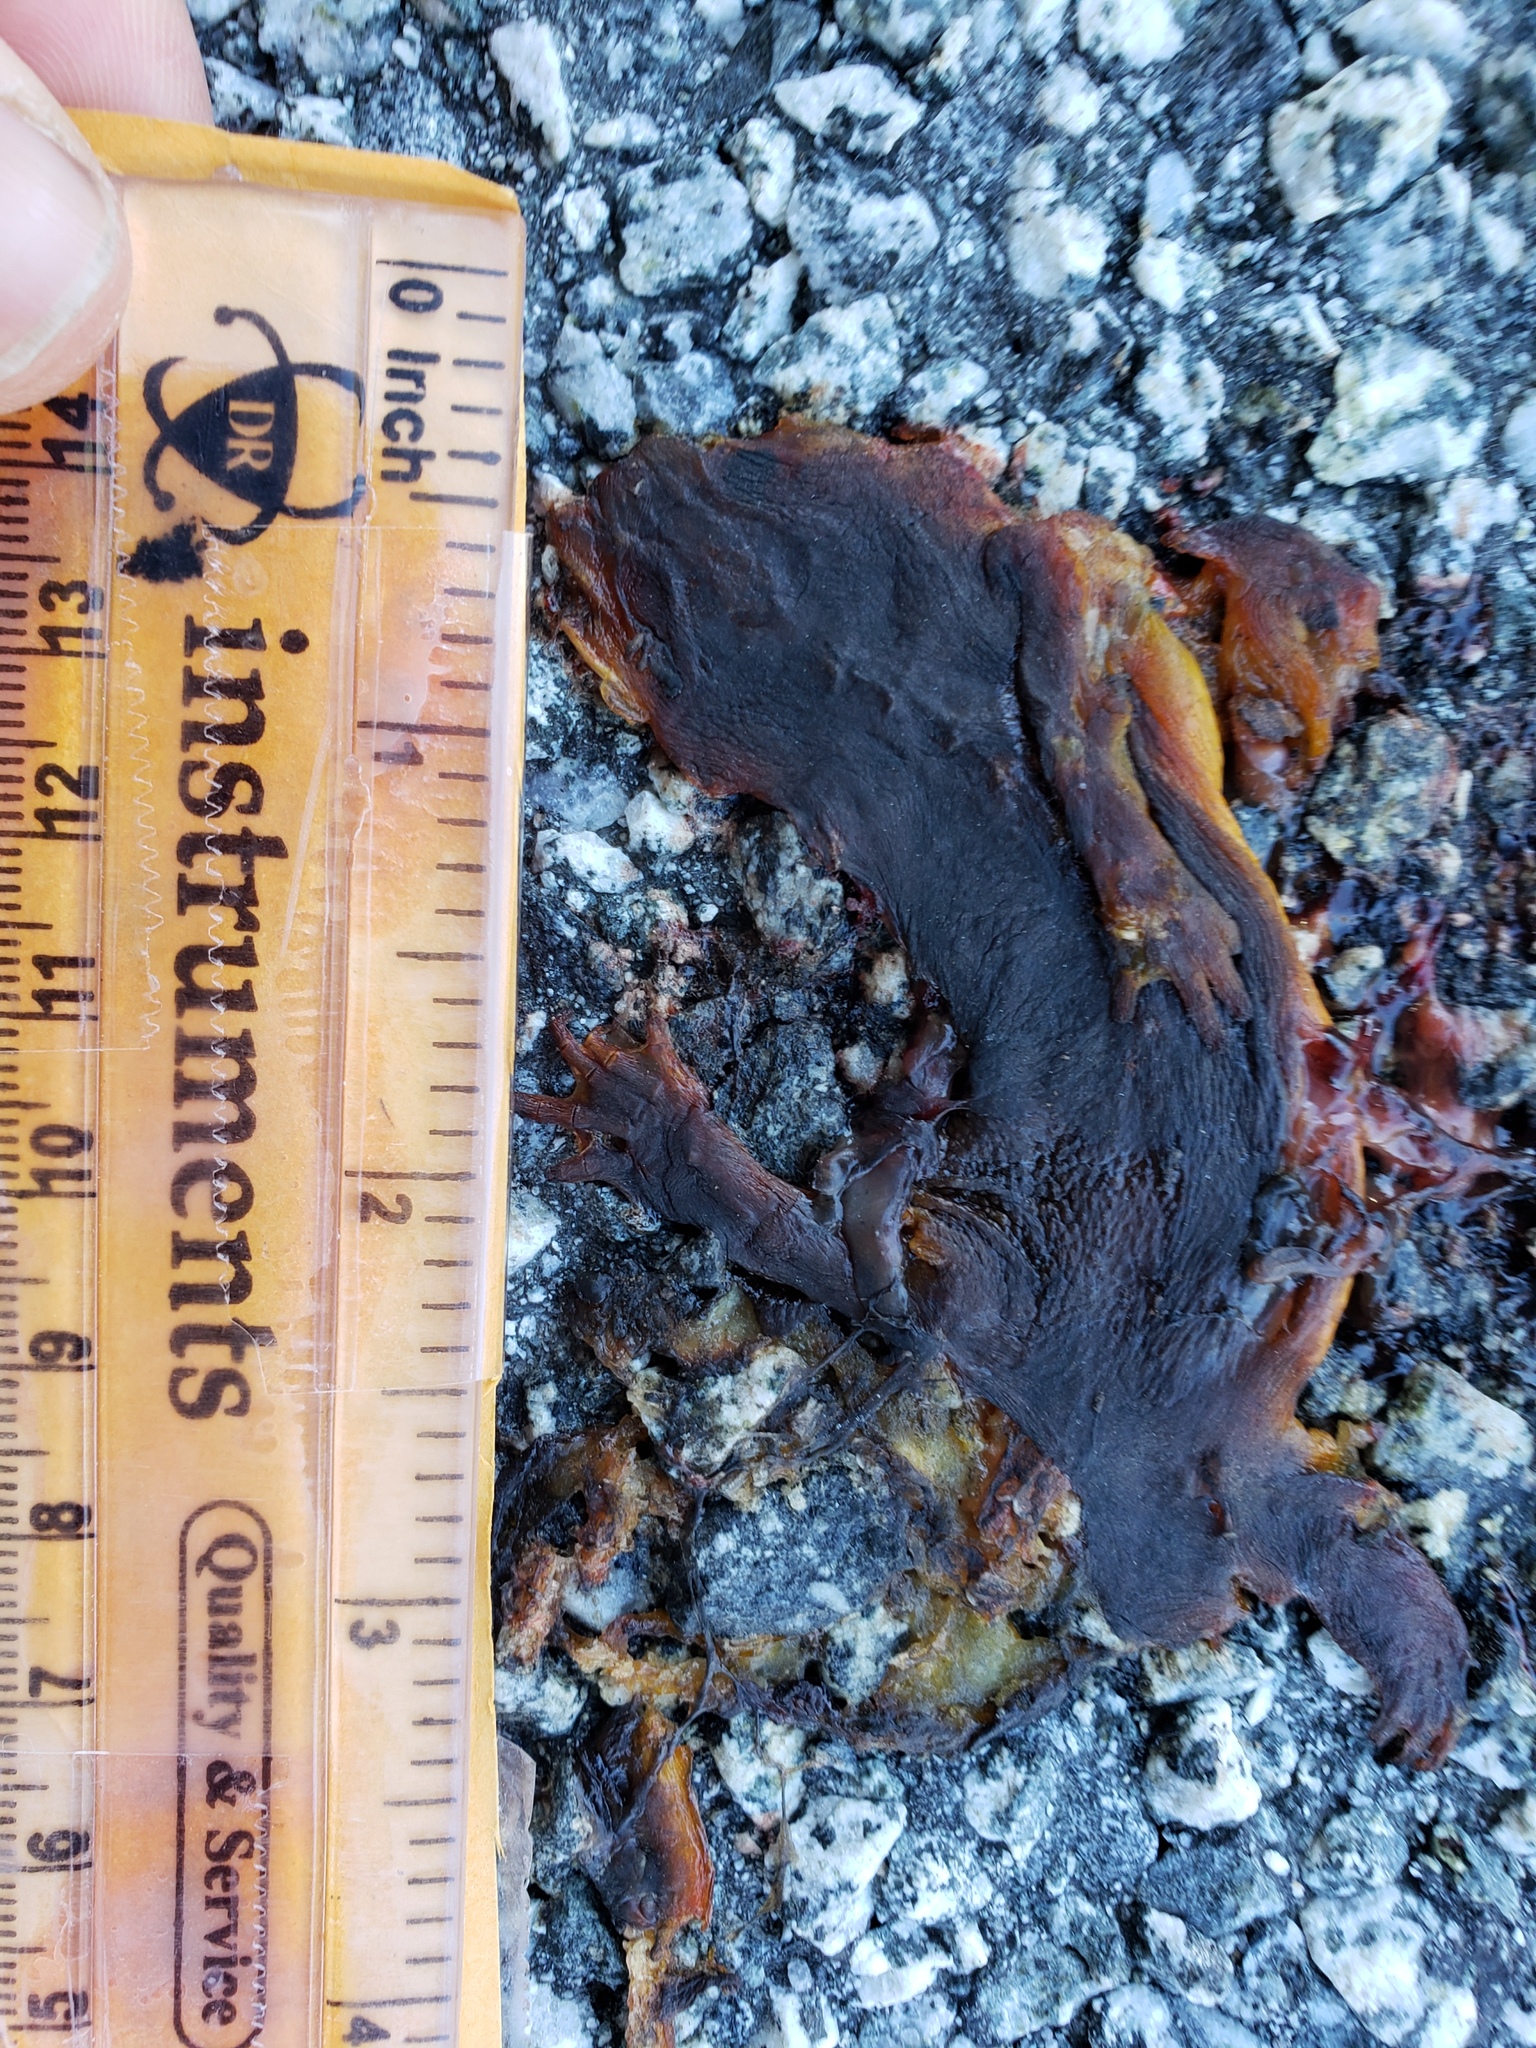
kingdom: Animalia
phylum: Chordata
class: Amphibia
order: Caudata
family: Salamandridae
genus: Taricha
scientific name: Taricha
